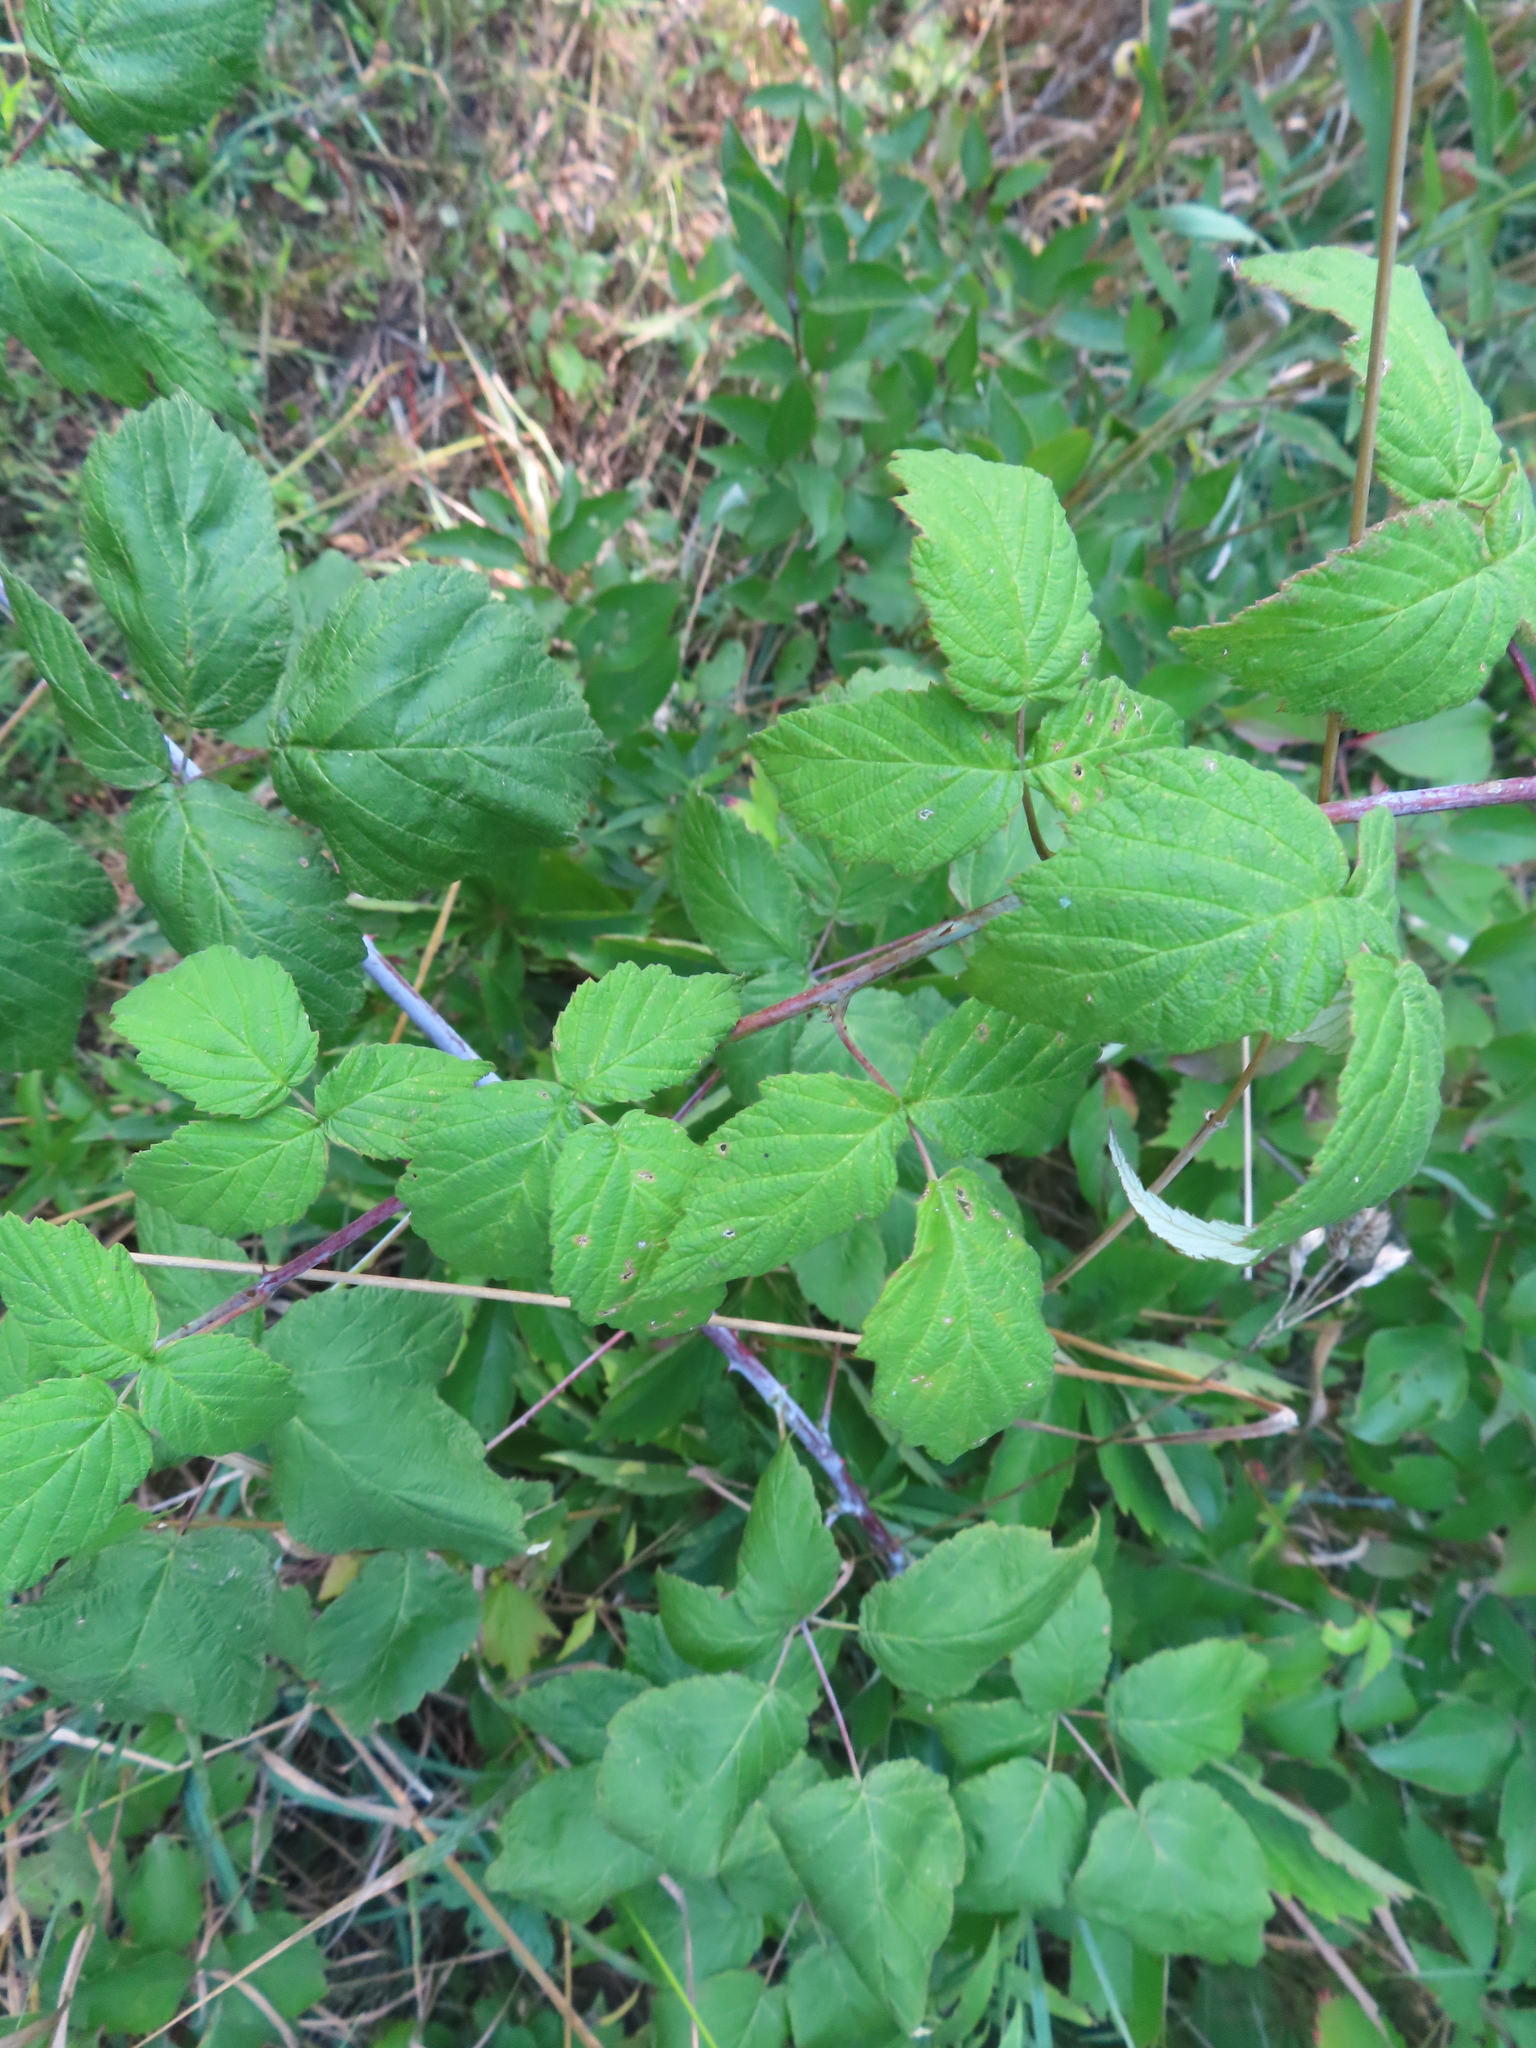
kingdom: Plantae
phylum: Tracheophyta
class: Magnoliopsida
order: Rosales
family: Rosaceae
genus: Rubus
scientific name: Rubus occidentalis
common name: Black raspberry
